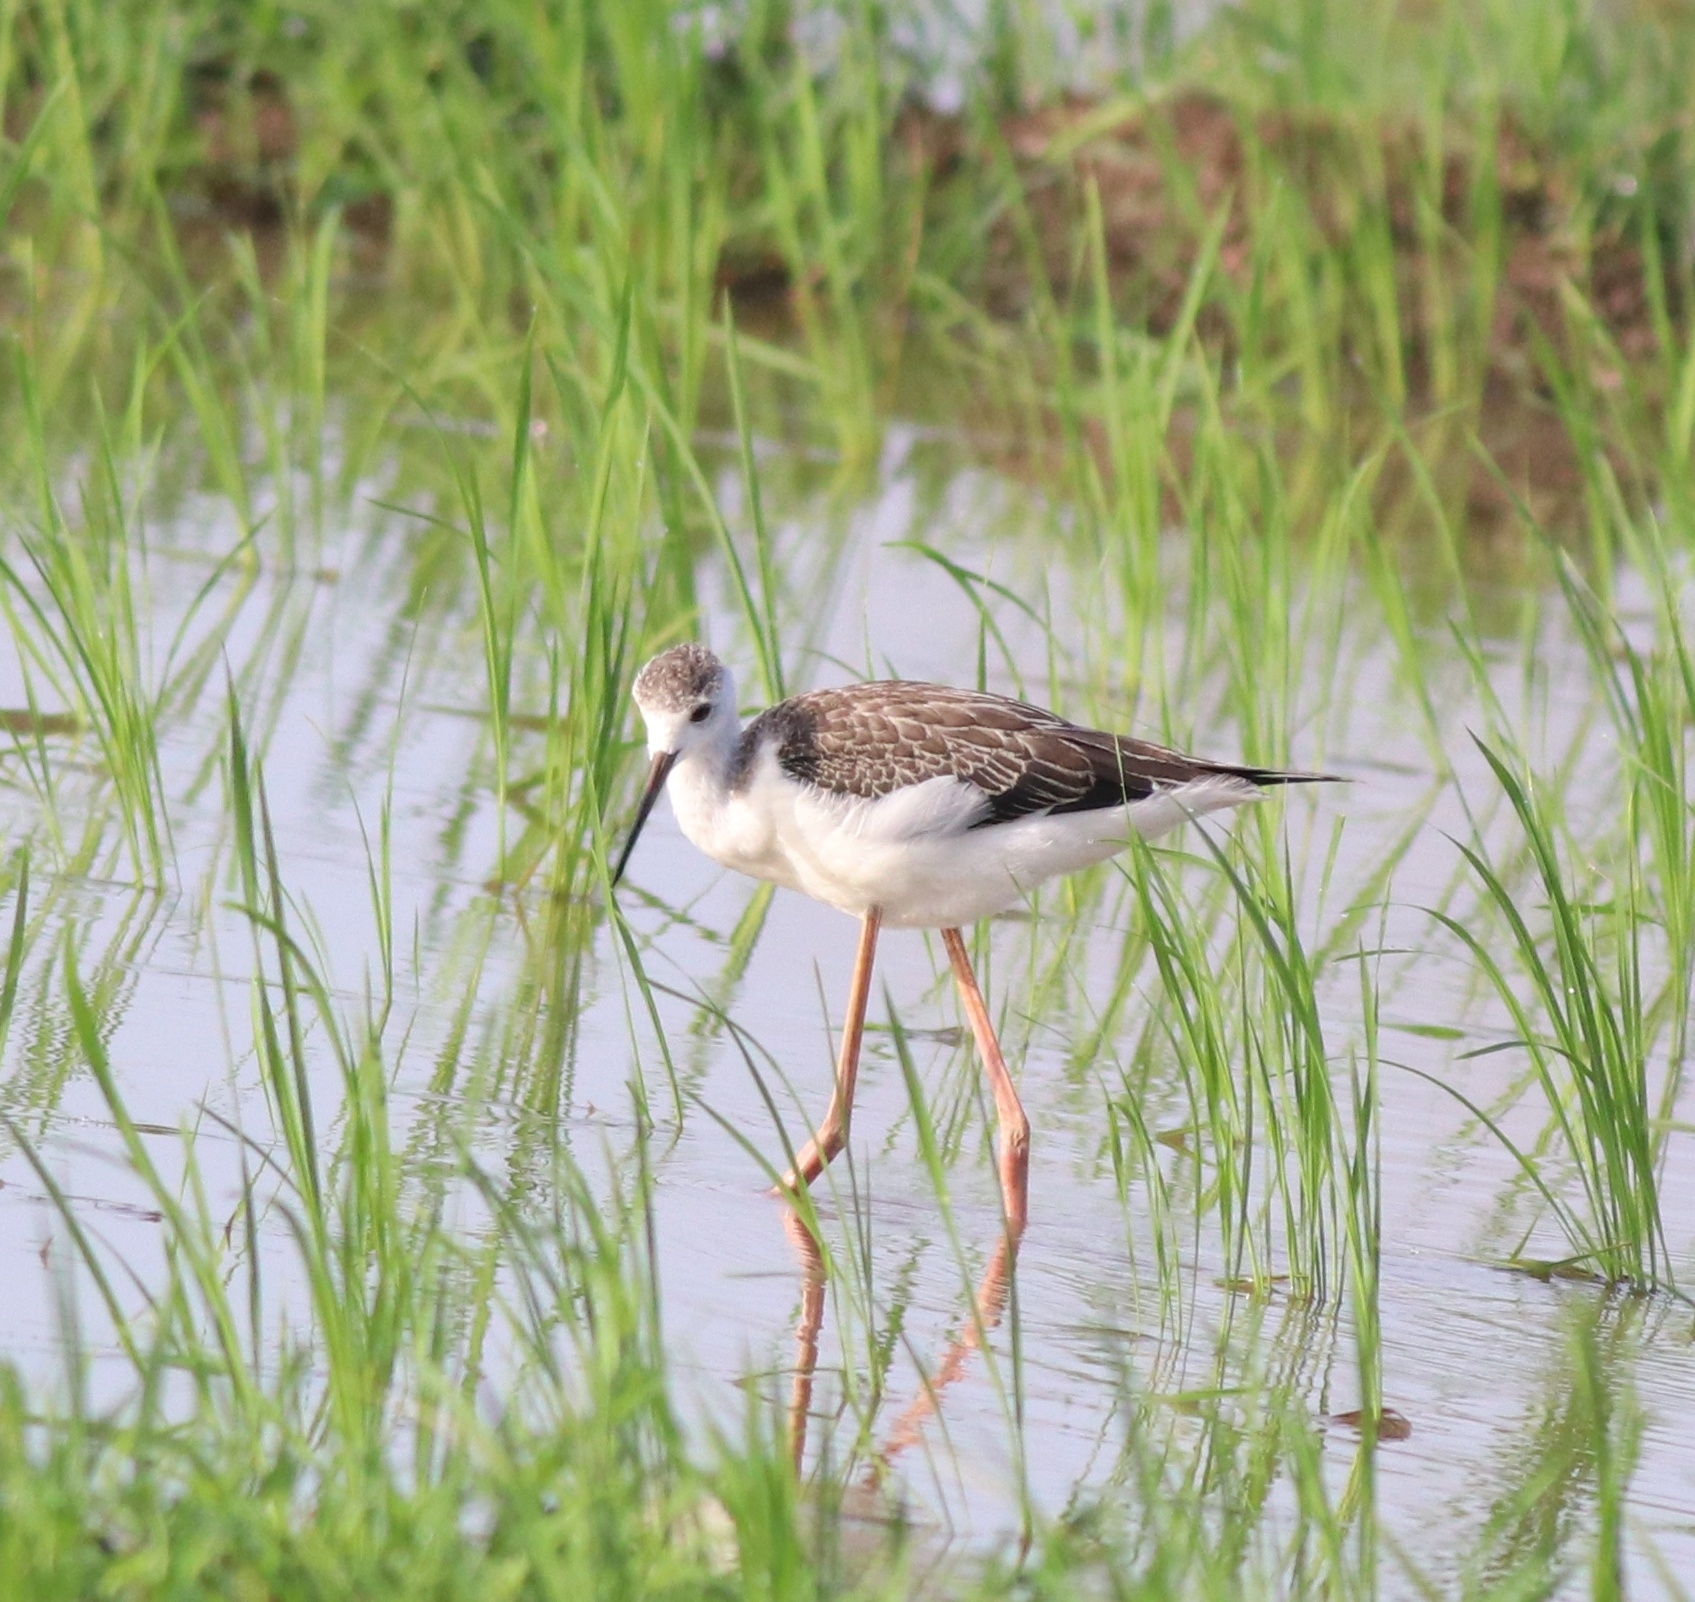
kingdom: Animalia
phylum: Chordata
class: Aves
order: Charadriiformes
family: Recurvirostridae
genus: Himantopus
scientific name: Himantopus himantopus
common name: Black-winged stilt
